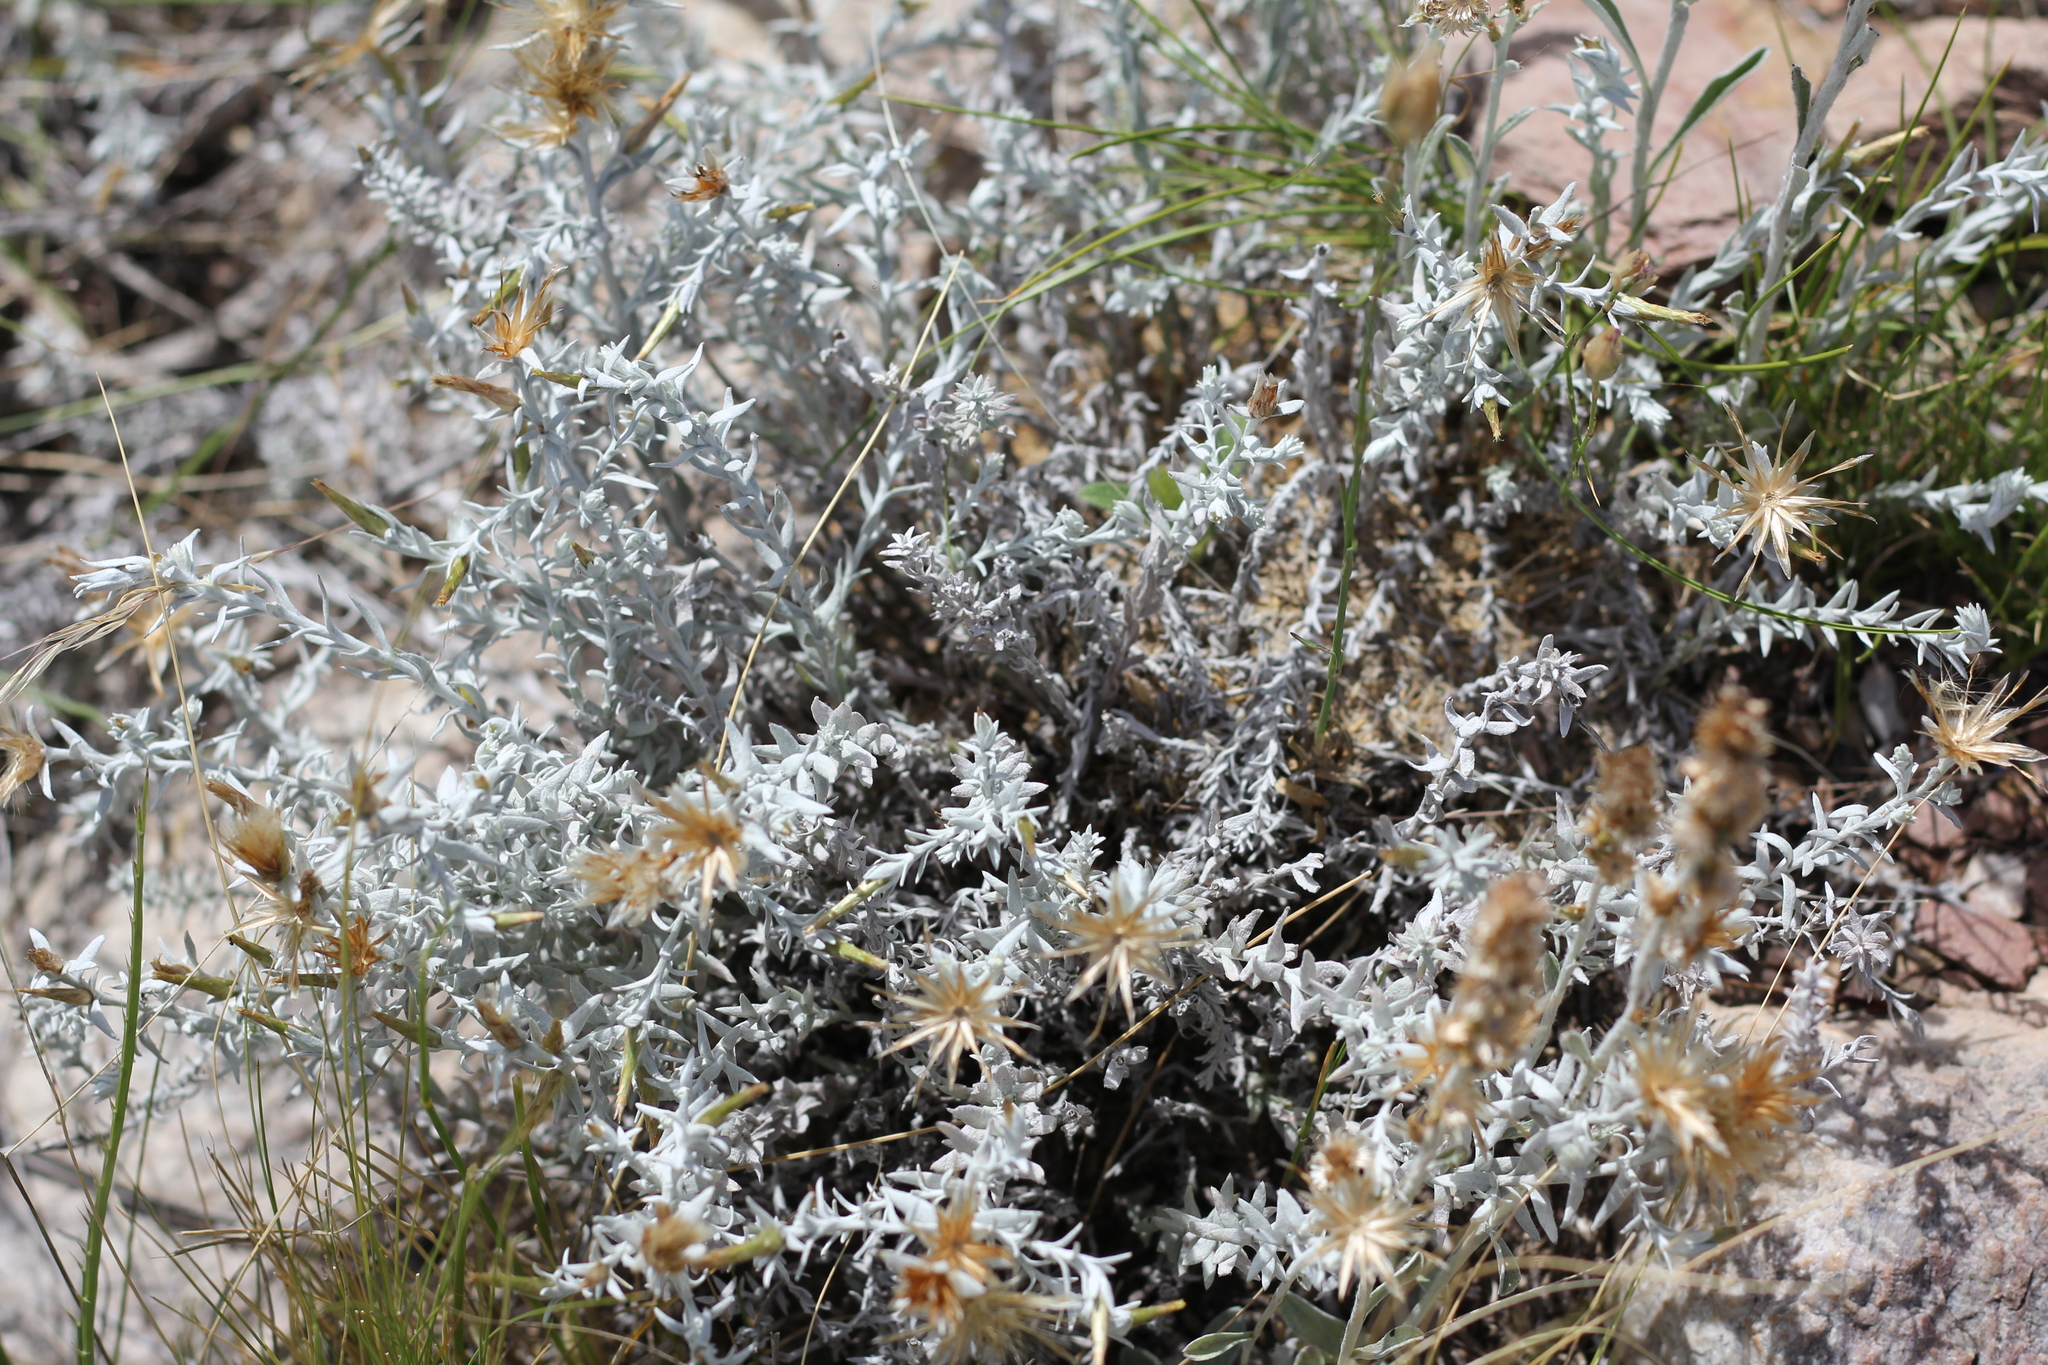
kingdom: Plantae
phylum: Tracheophyta
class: Magnoliopsida
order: Asterales
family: Asteraceae
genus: Lucilia
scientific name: Lucilia acutifolia
